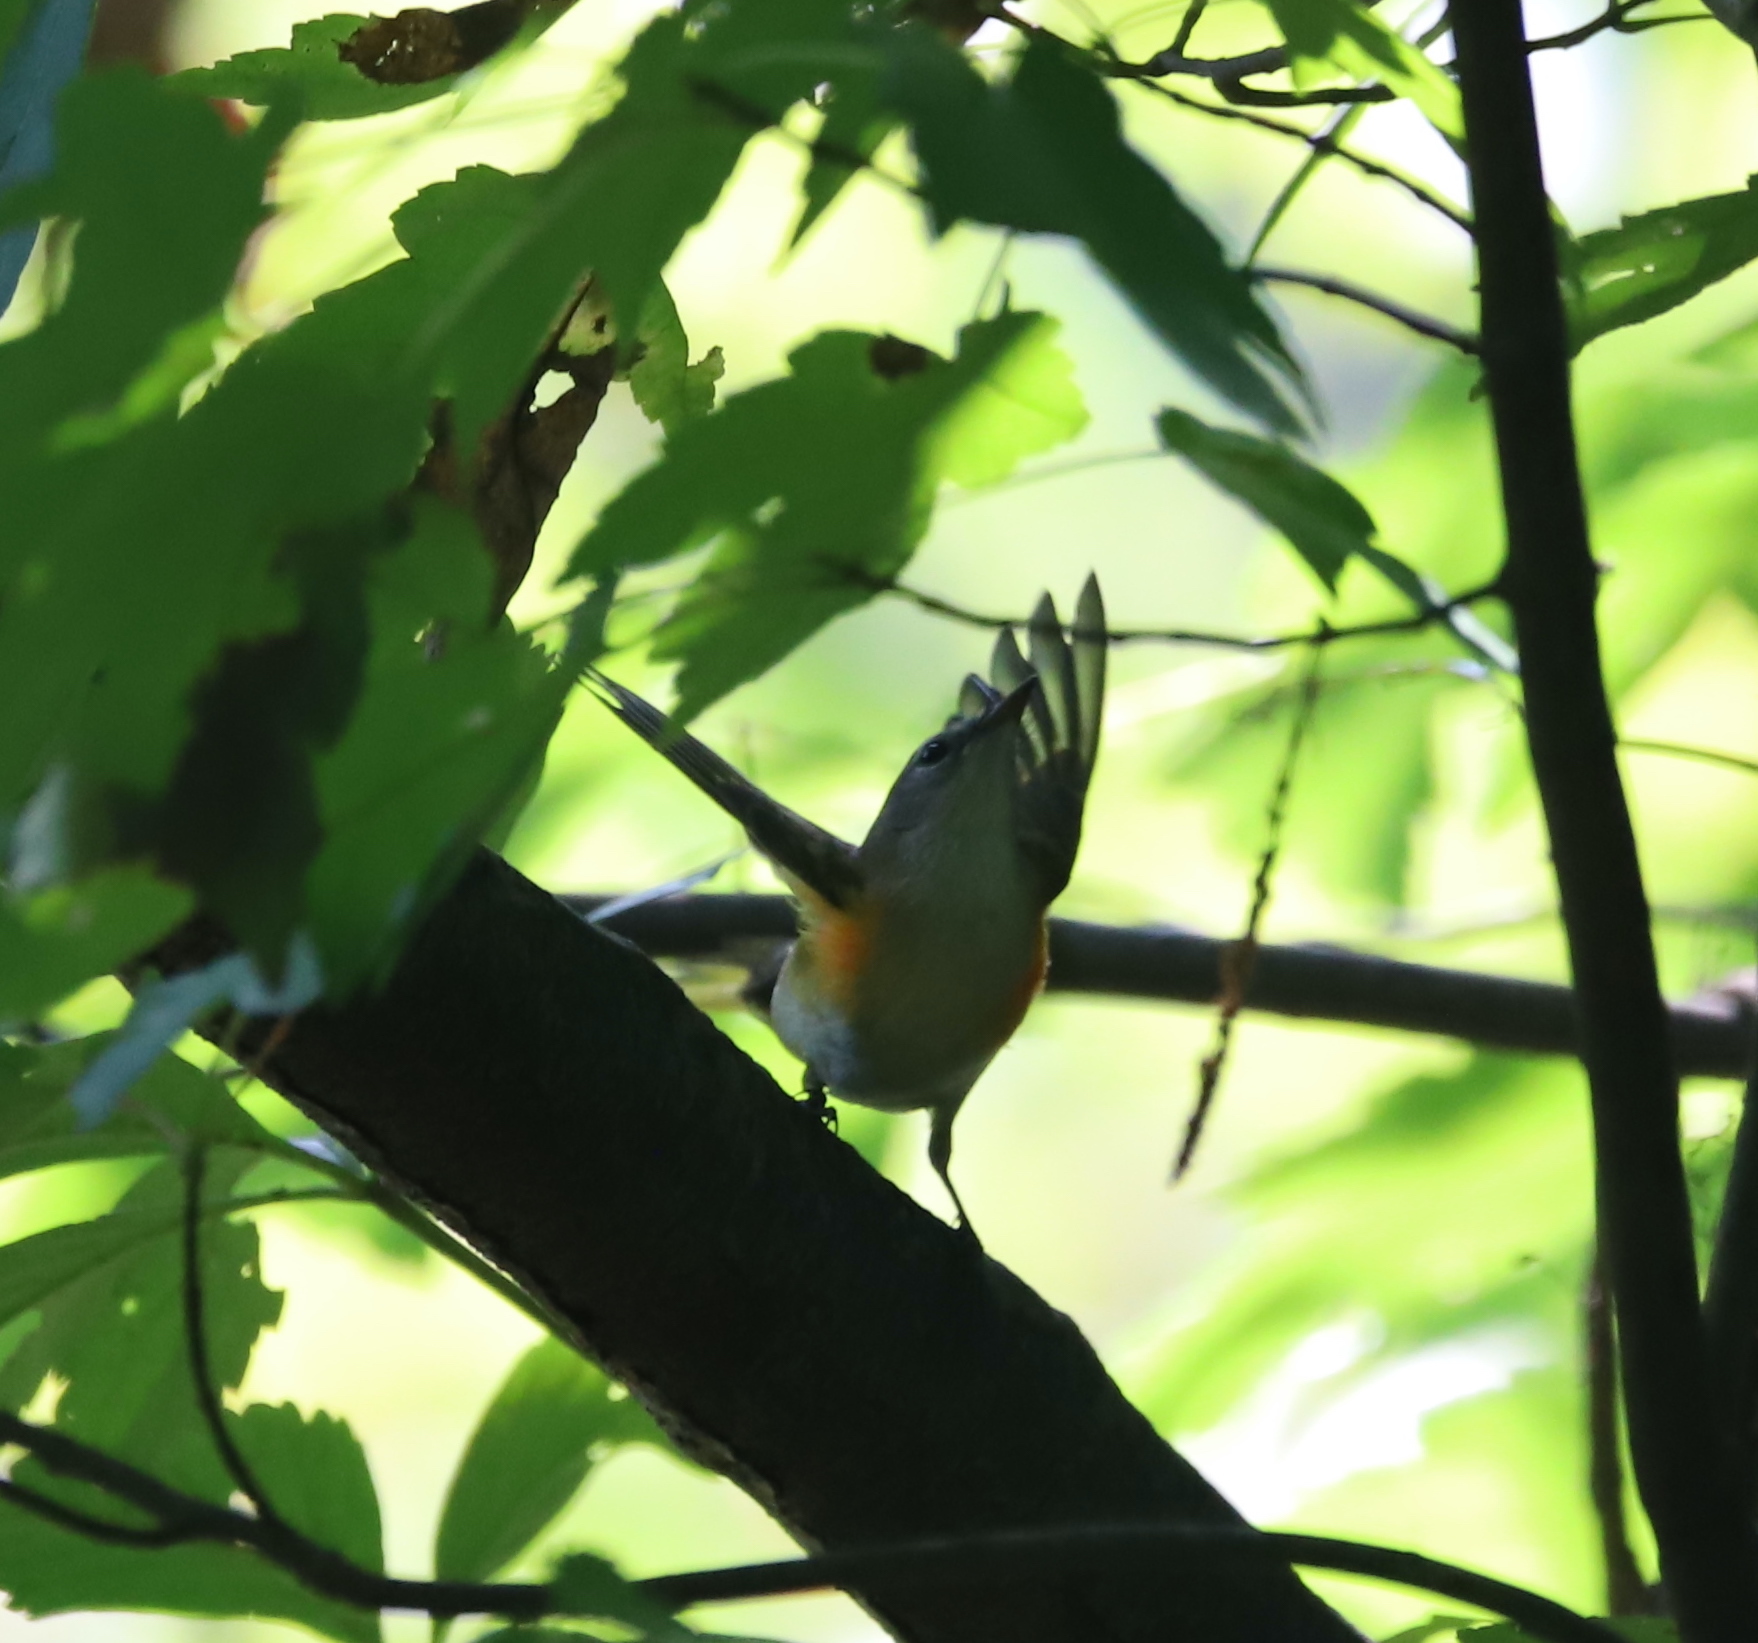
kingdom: Animalia
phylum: Chordata
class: Aves
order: Passeriformes
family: Parulidae
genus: Setophaga
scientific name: Setophaga ruticilla
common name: American redstart
